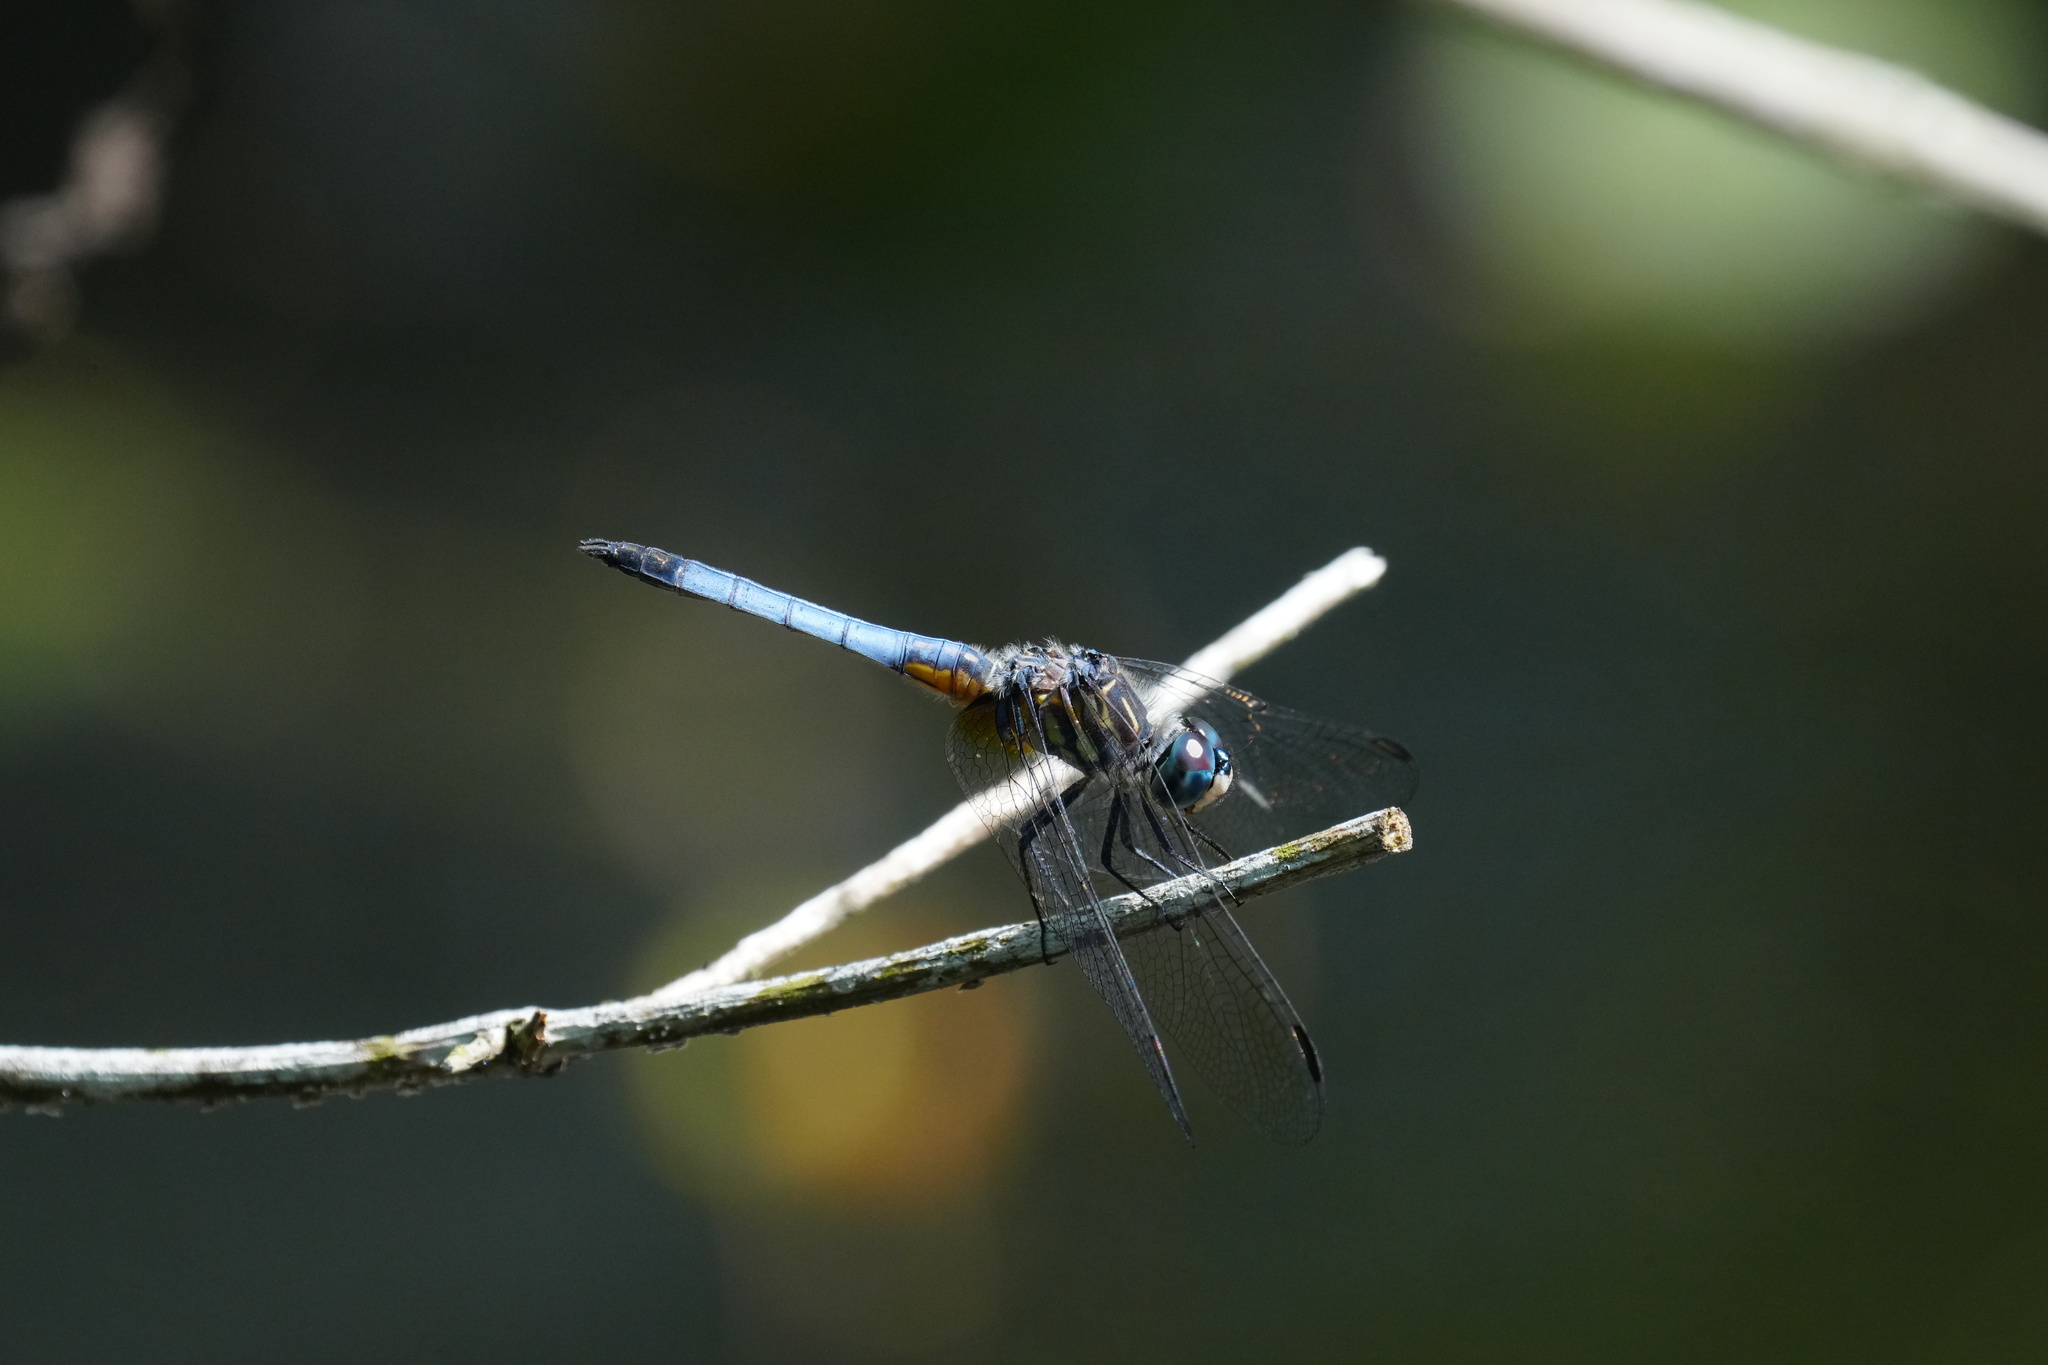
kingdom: Animalia
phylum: Arthropoda
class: Insecta
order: Odonata
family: Libellulidae
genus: Pachydiplax
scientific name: Pachydiplax longipennis
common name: Blue dasher
